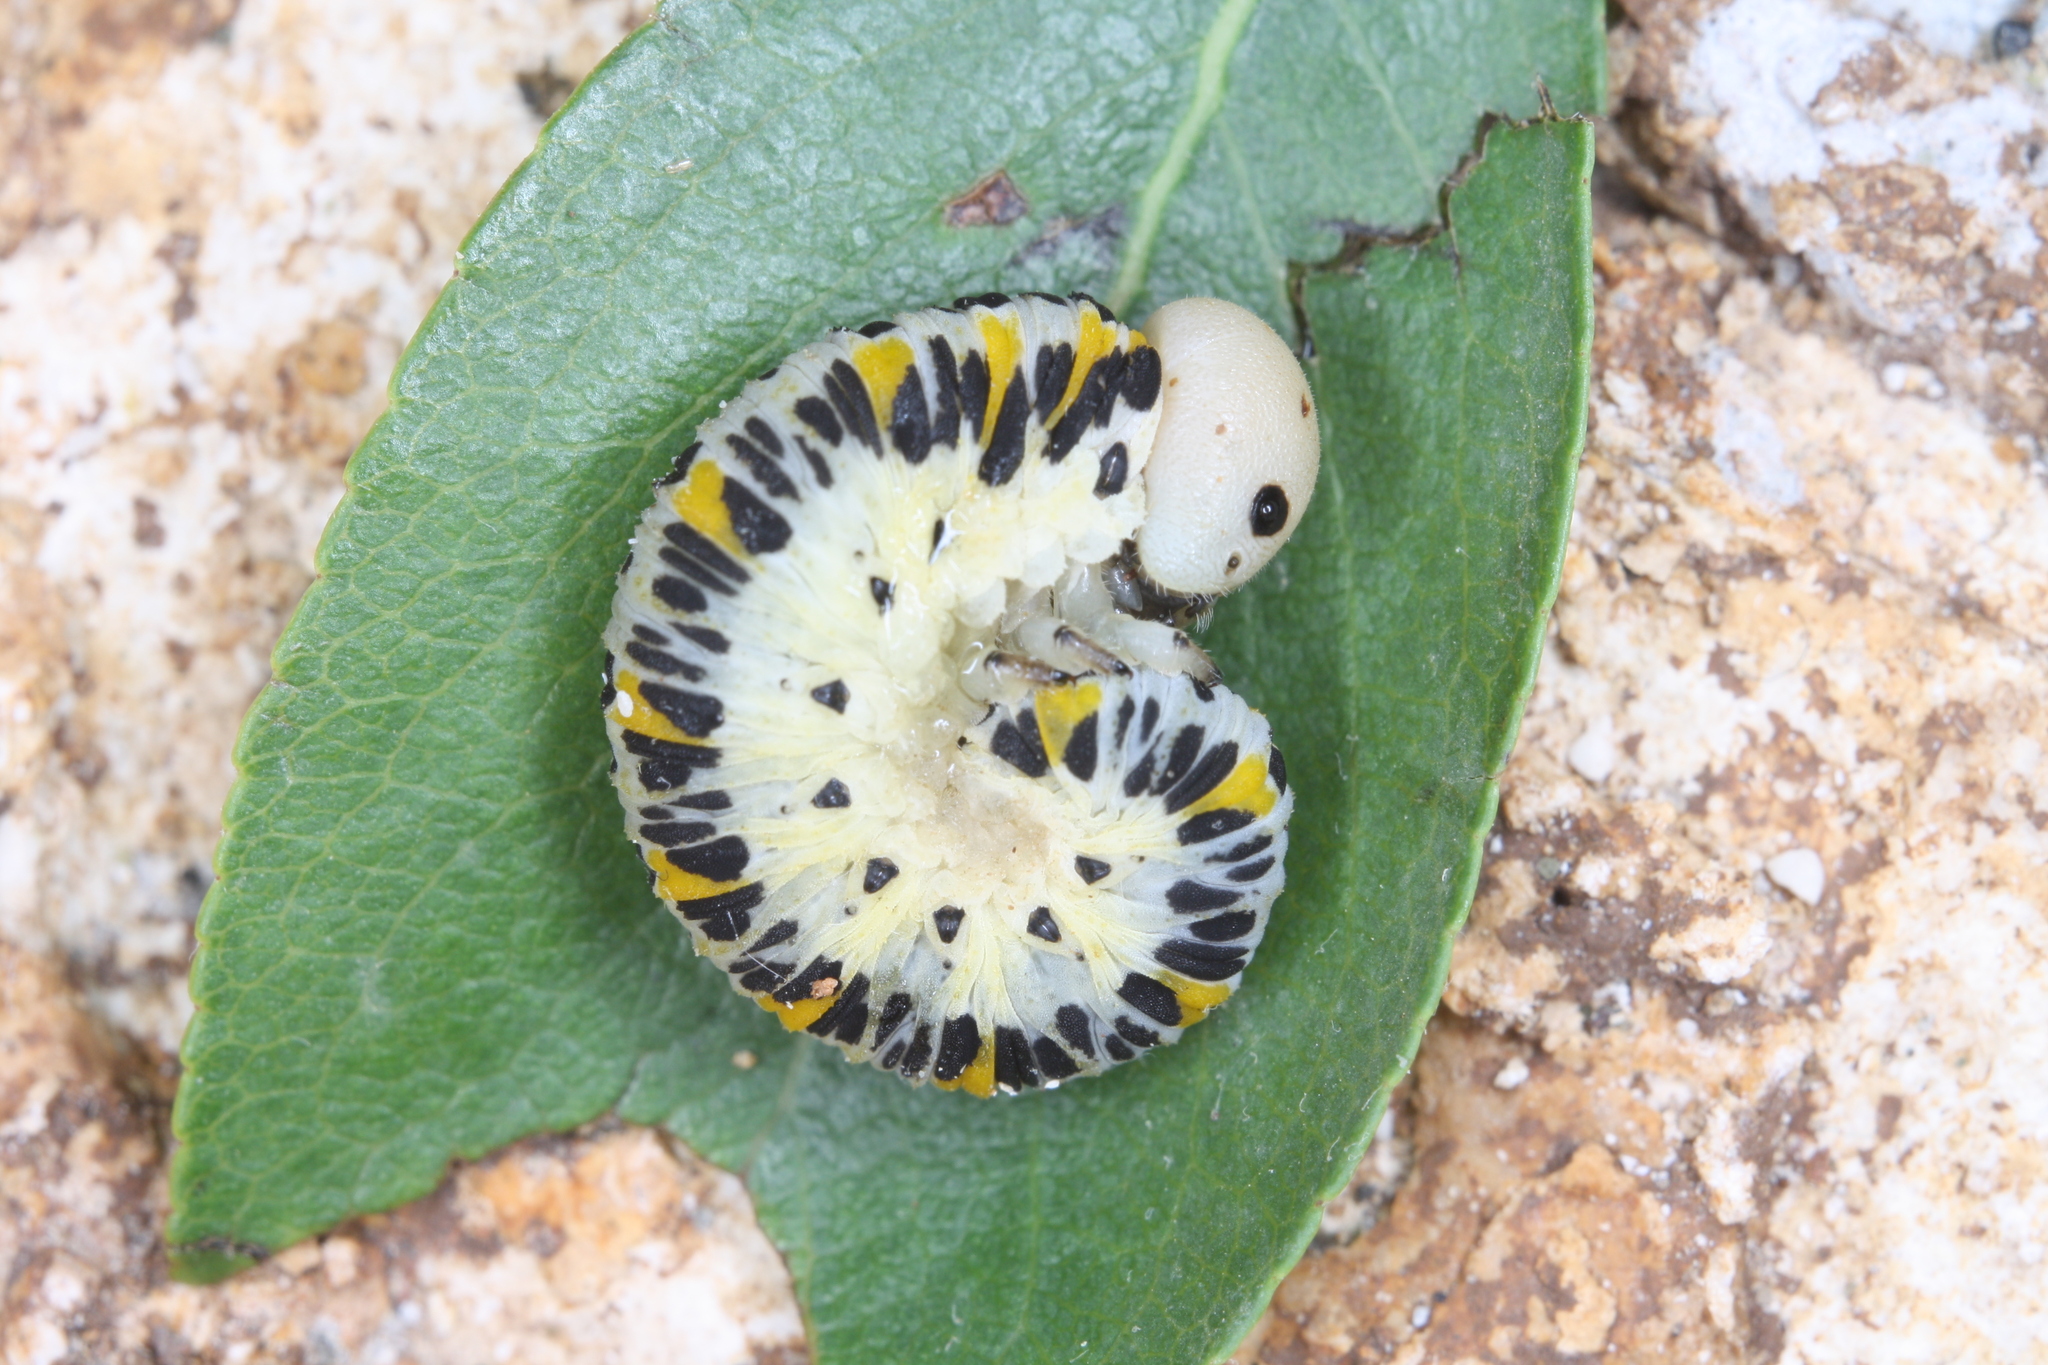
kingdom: Animalia
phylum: Arthropoda
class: Insecta
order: Hymenoptera
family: Cimbicidae
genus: Cimbex
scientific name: Cimbex quadrimaculatus
